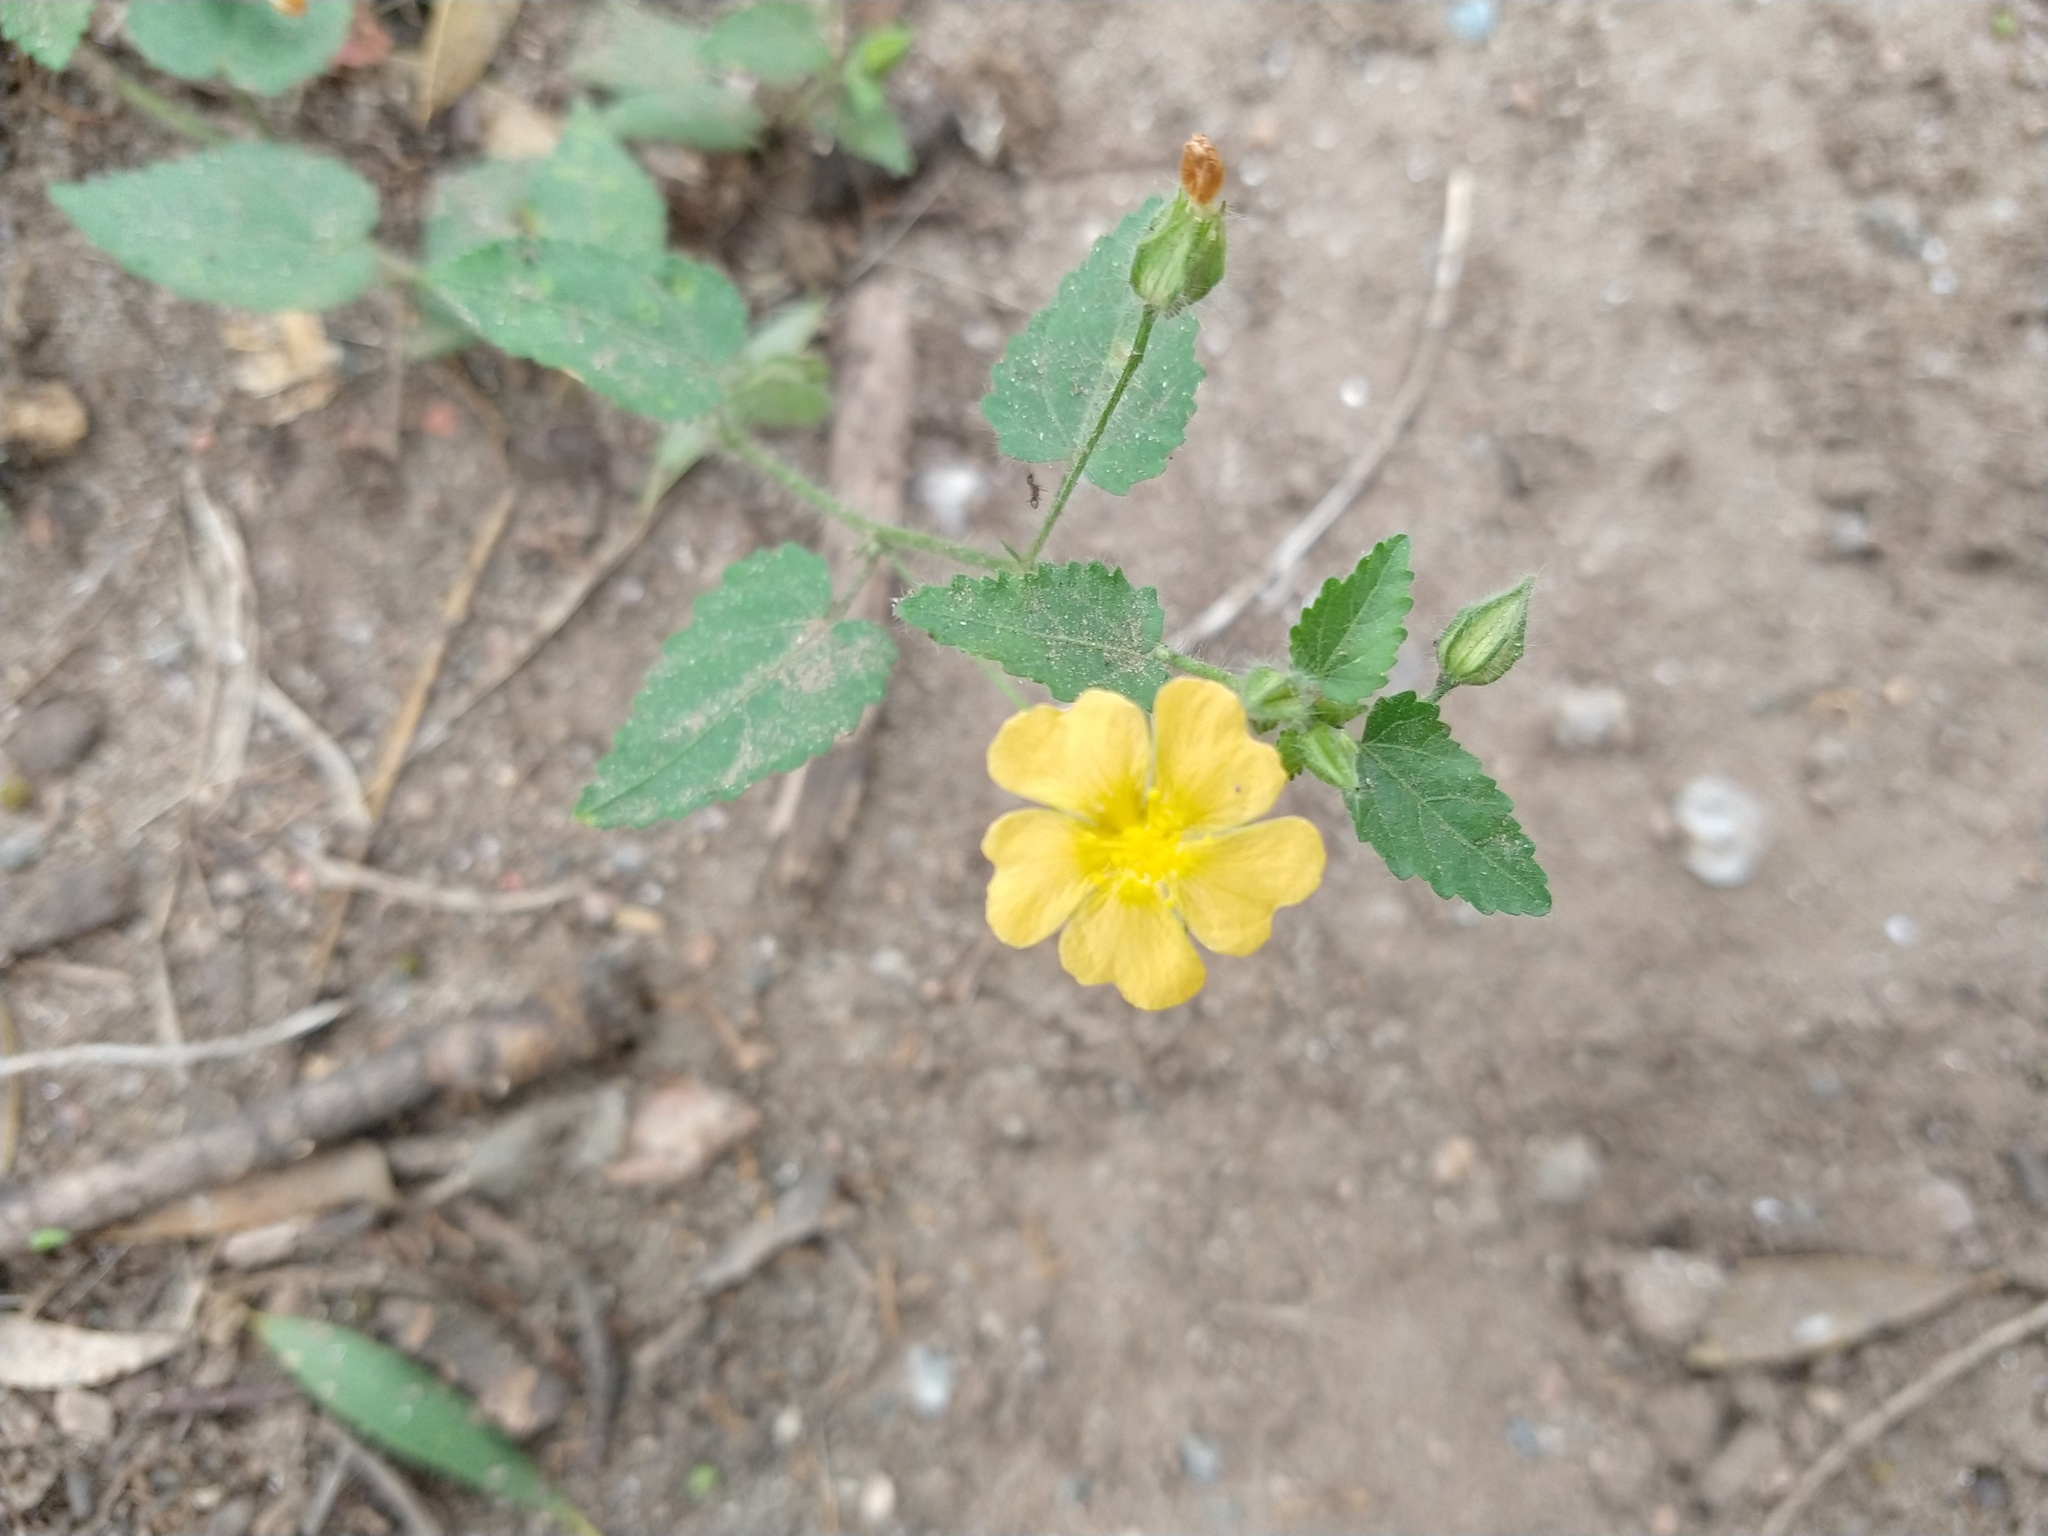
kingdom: Plantae
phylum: Tracheophyta
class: Magnoliopsida
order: Malvales
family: Malvaceae
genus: Sida
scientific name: Sida dictyocarpa
